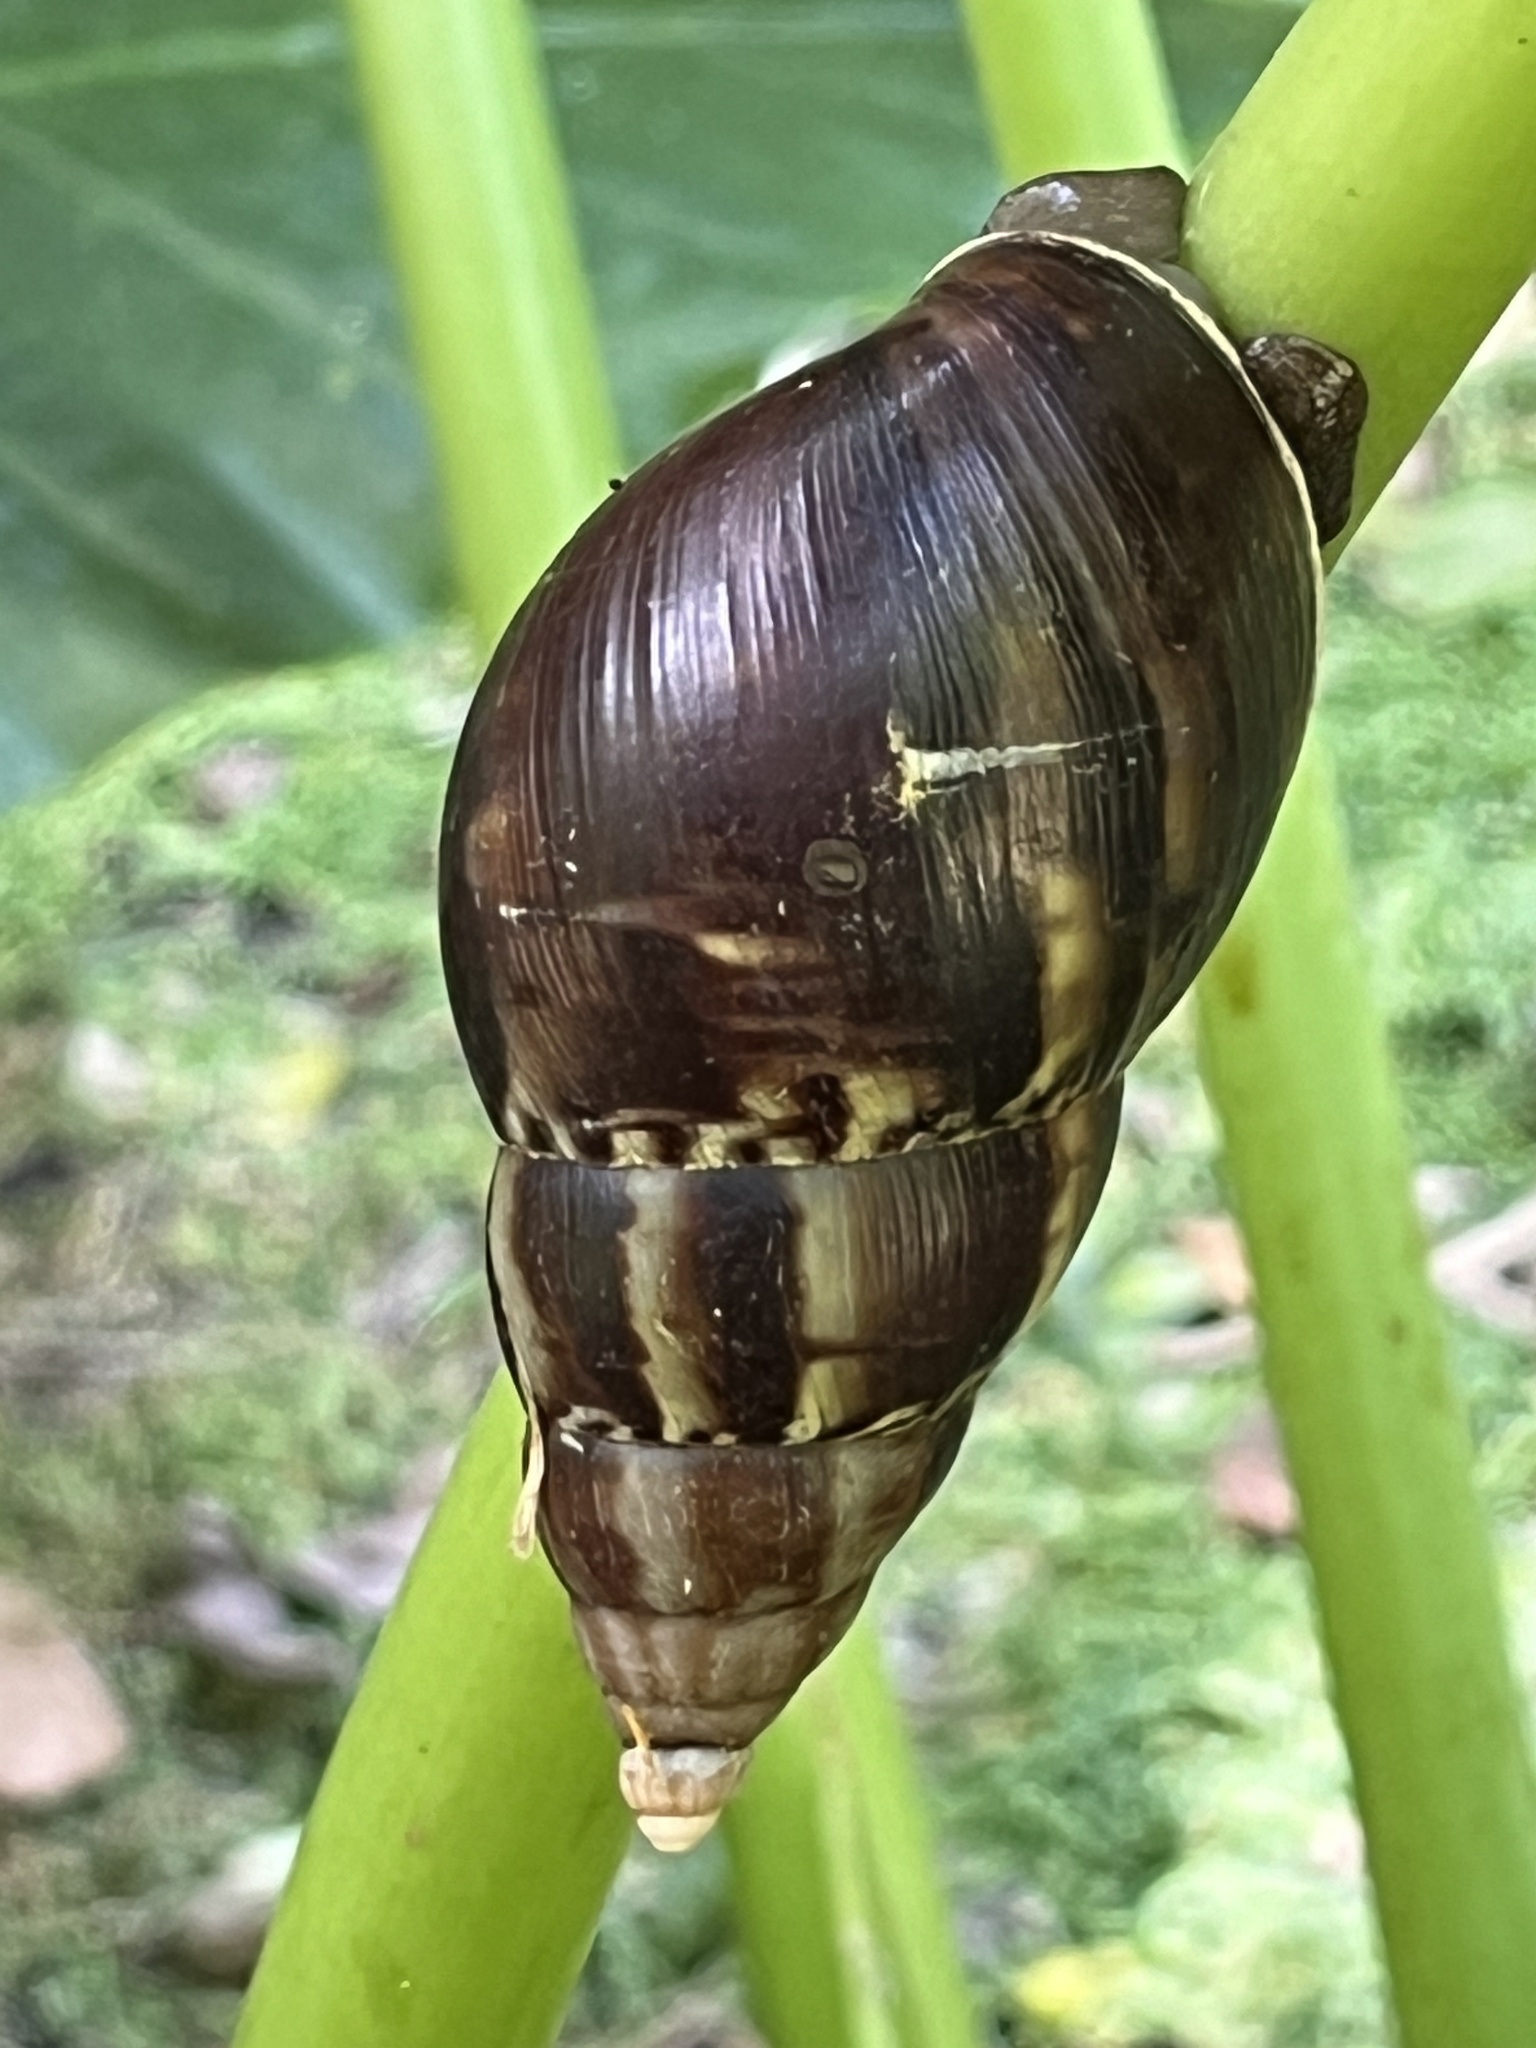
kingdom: Animalia
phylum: Mollusca
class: Gastropoda
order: Stylommatophora
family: Achatinidae
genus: Lissachatina
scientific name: Lissachatina fulica
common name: Giant african snail
